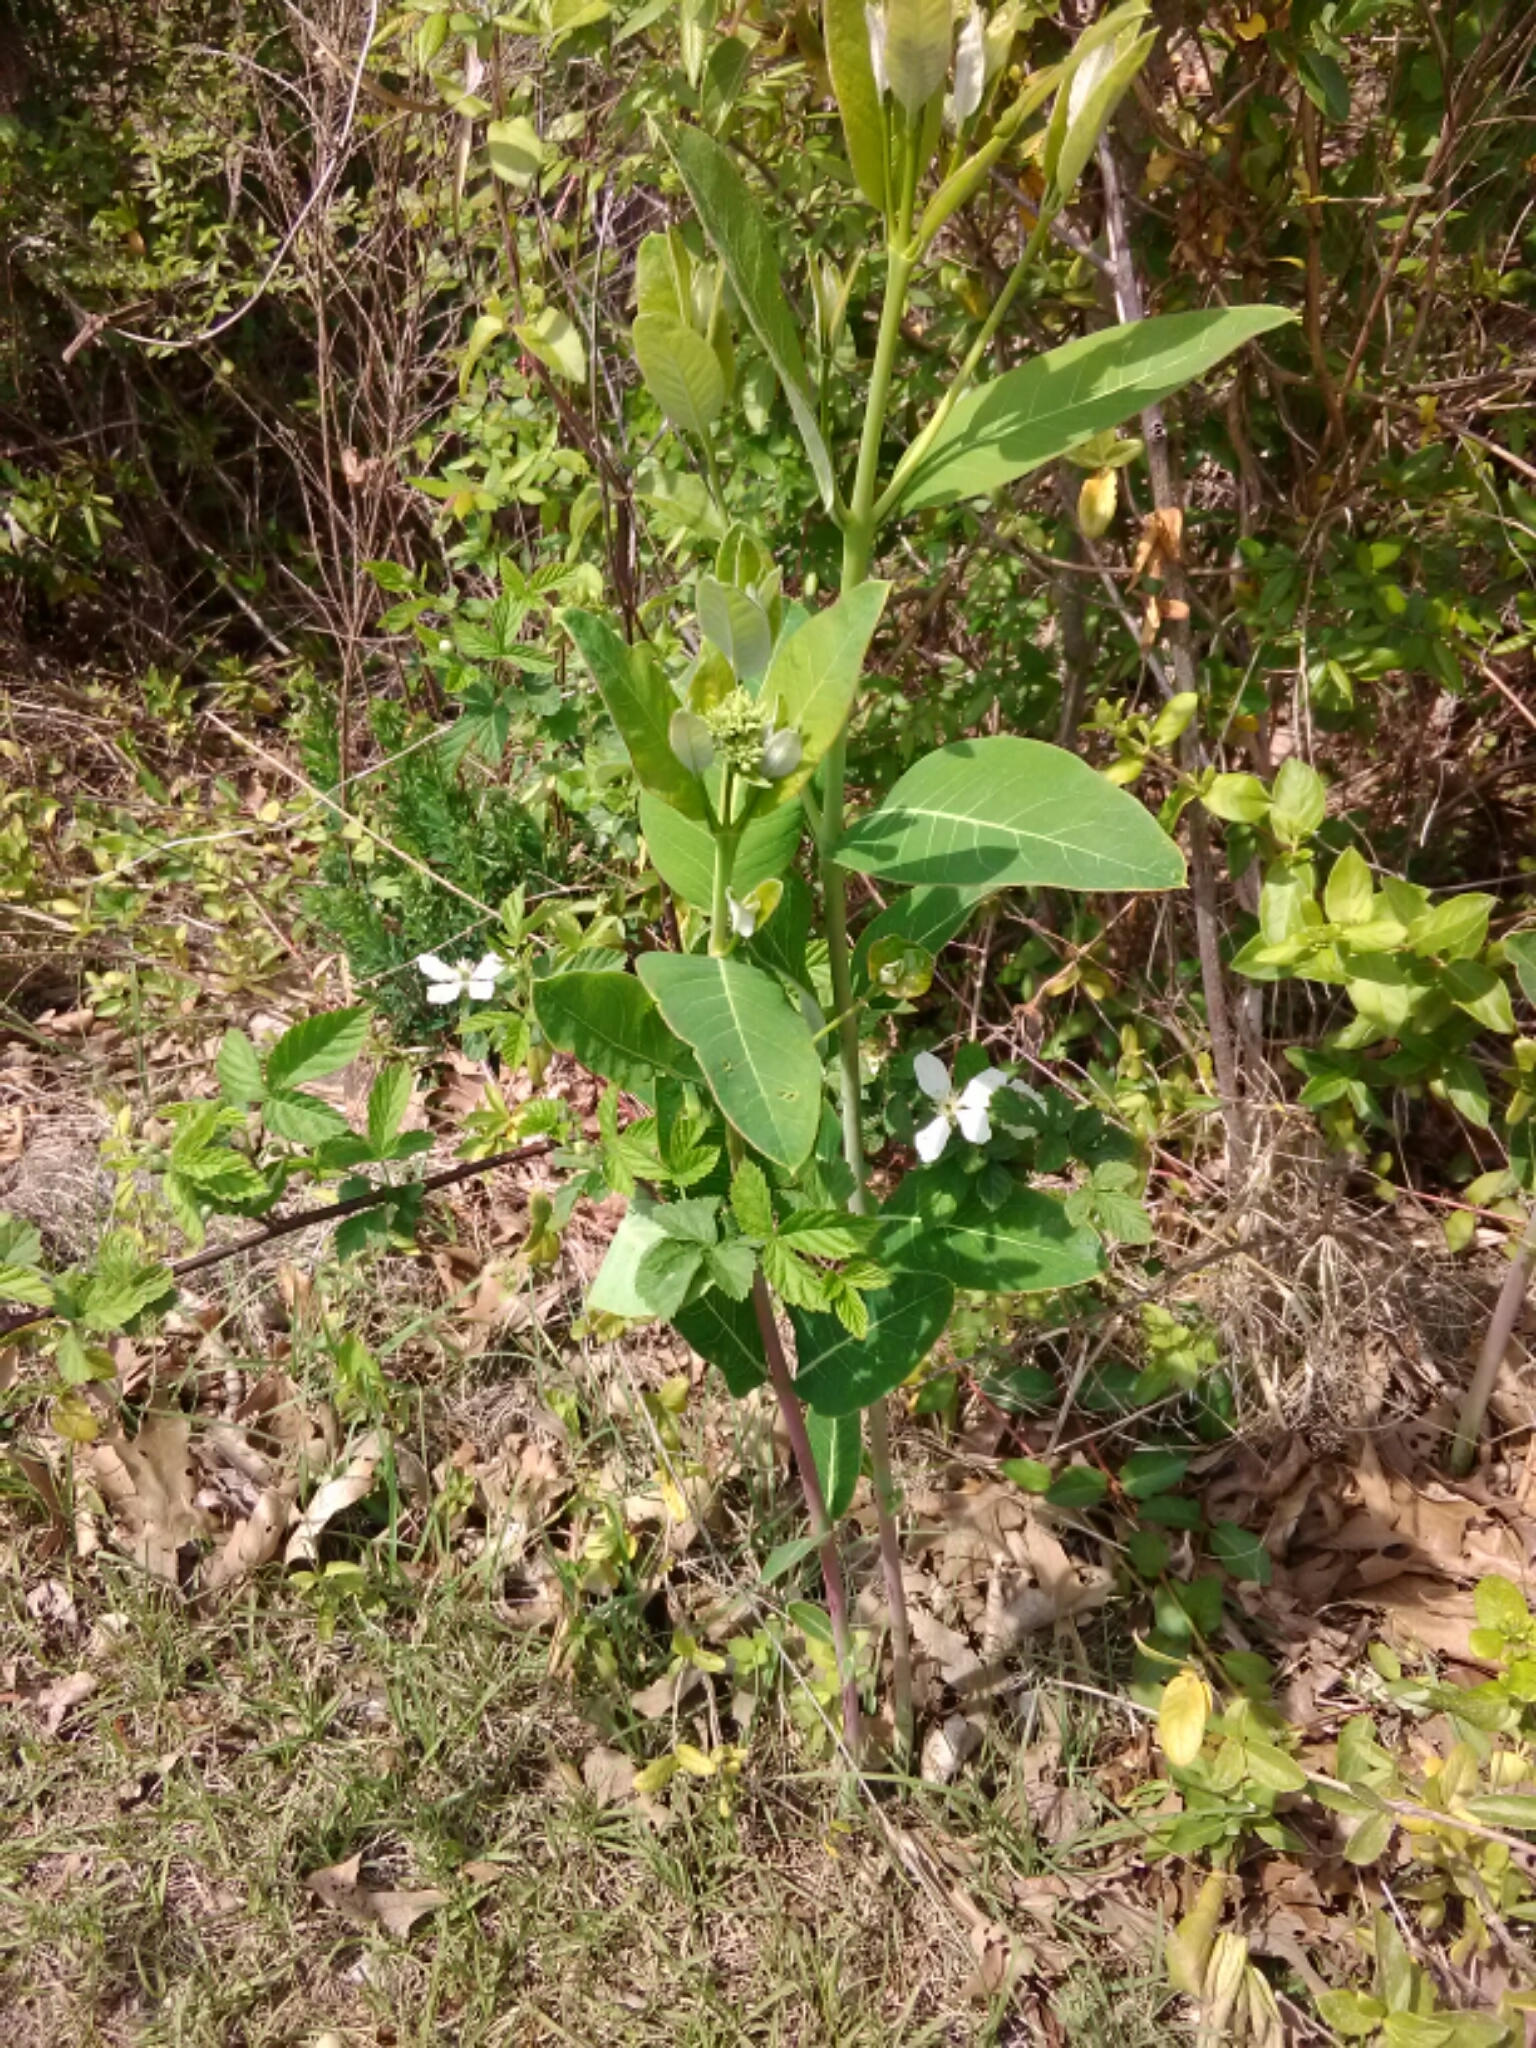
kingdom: Plantae
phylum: Tracheophyta
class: Magnoliopsida
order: Gentianales
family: Apocynaceae
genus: Apocynum
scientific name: Apocynum cannabinum
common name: Hemp dogbane
